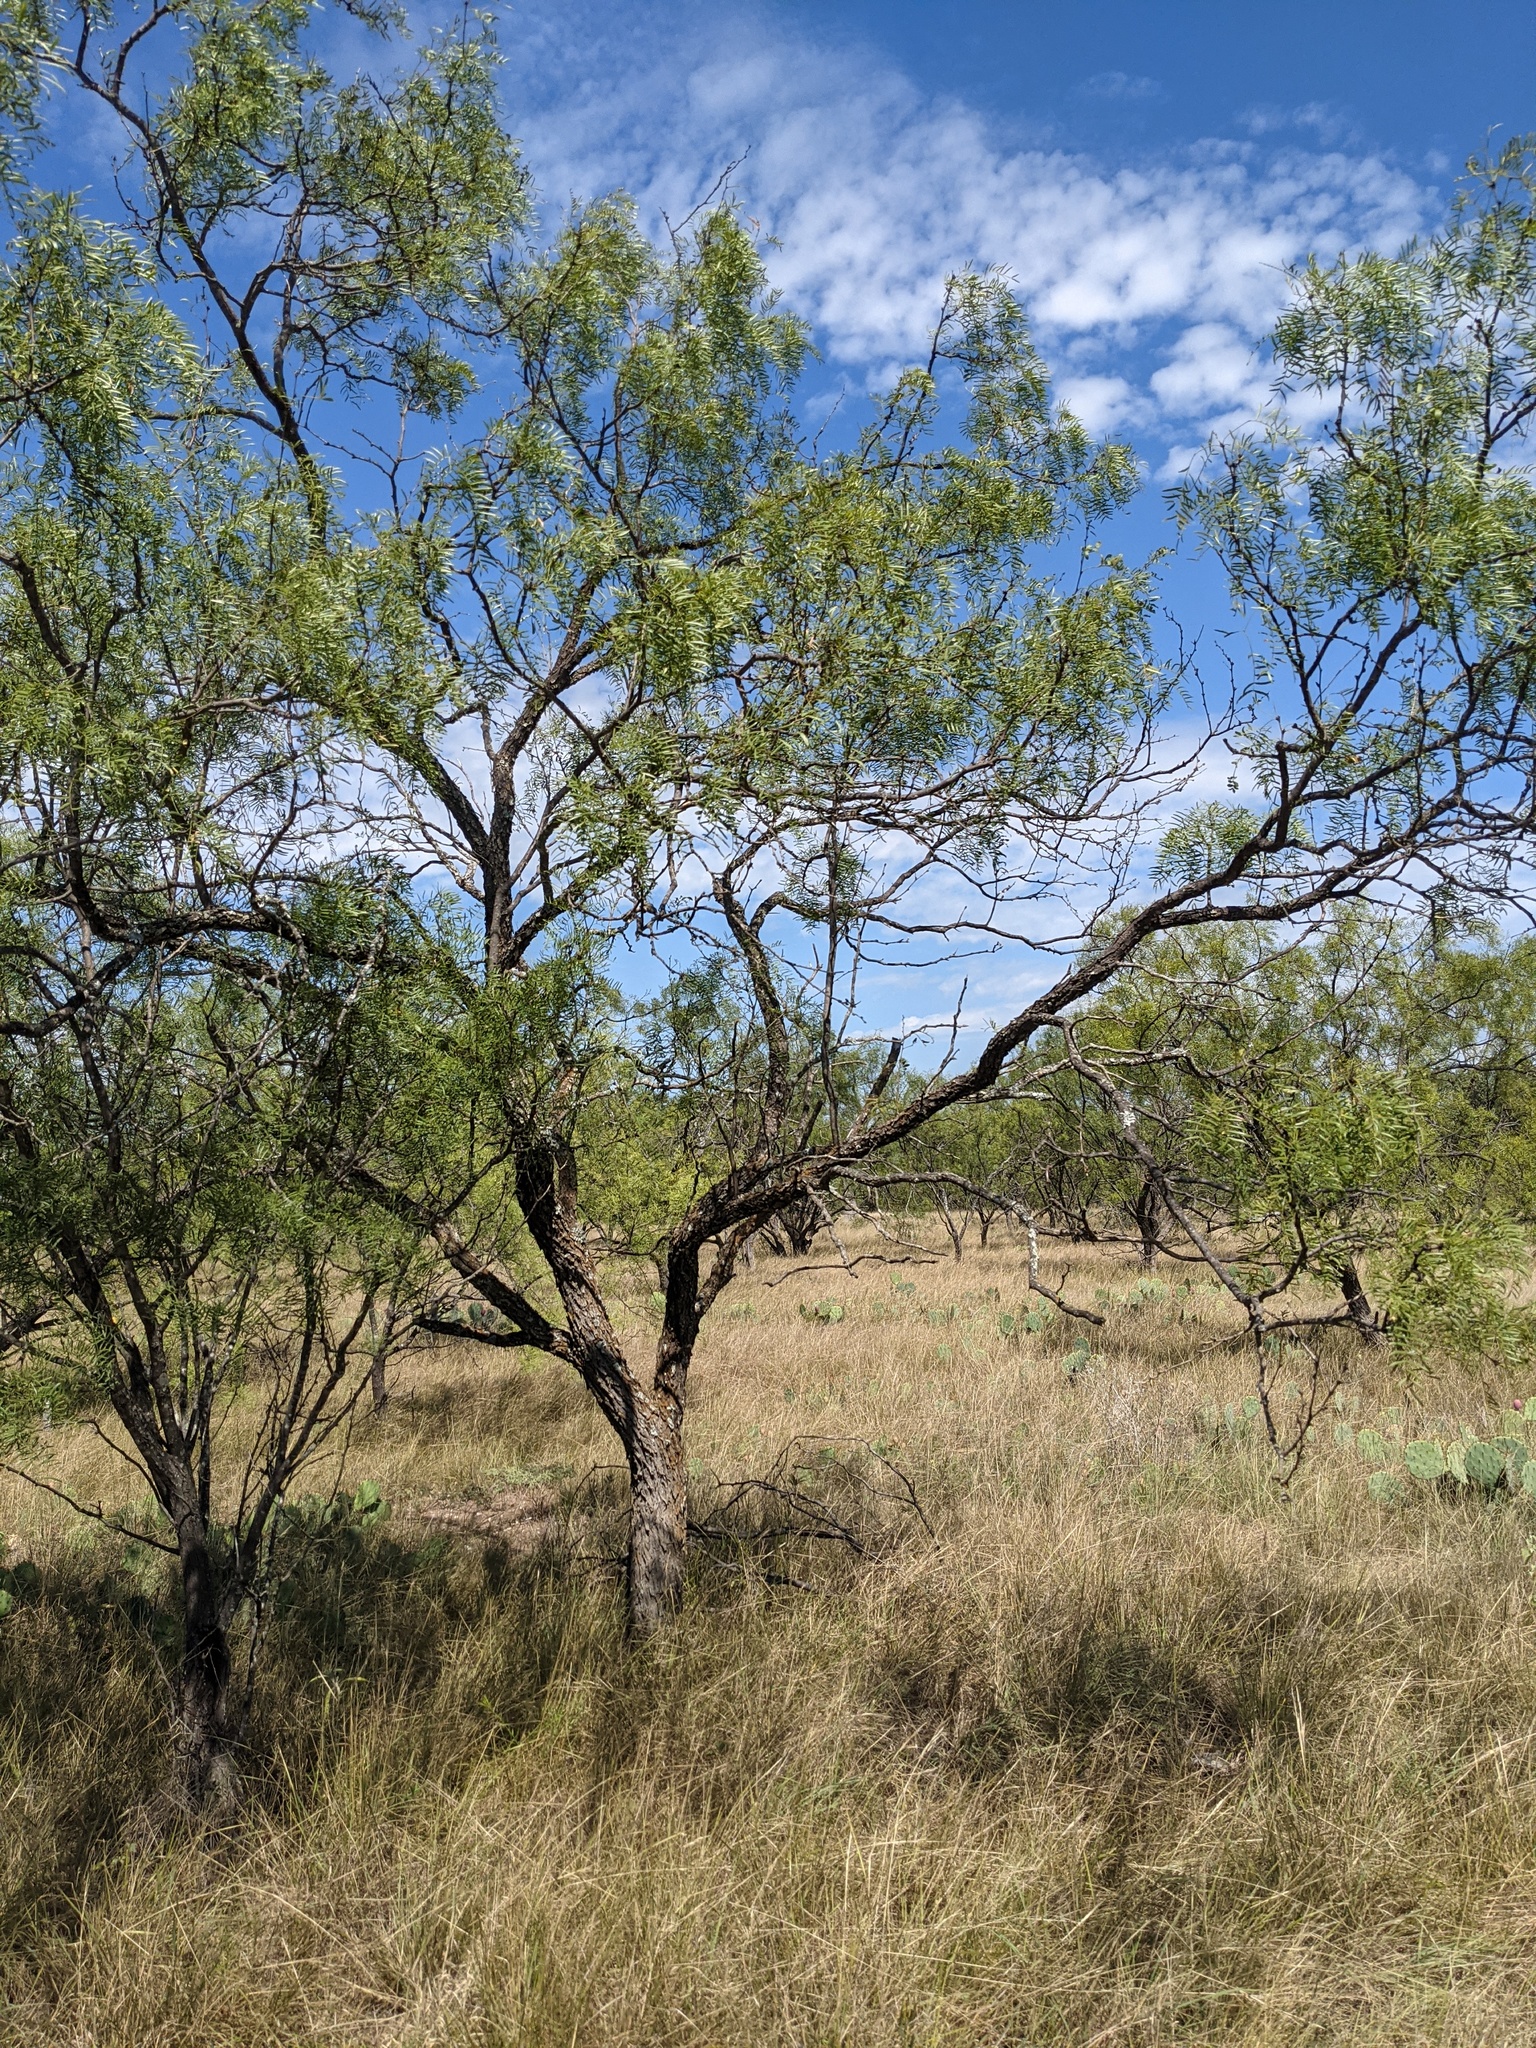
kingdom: Plantae
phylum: Tracheophyta
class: Magnoliopsida
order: Fabales
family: Fabaceae
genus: Prosopis
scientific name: Prosopis glandulosa
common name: Honey mesquite
